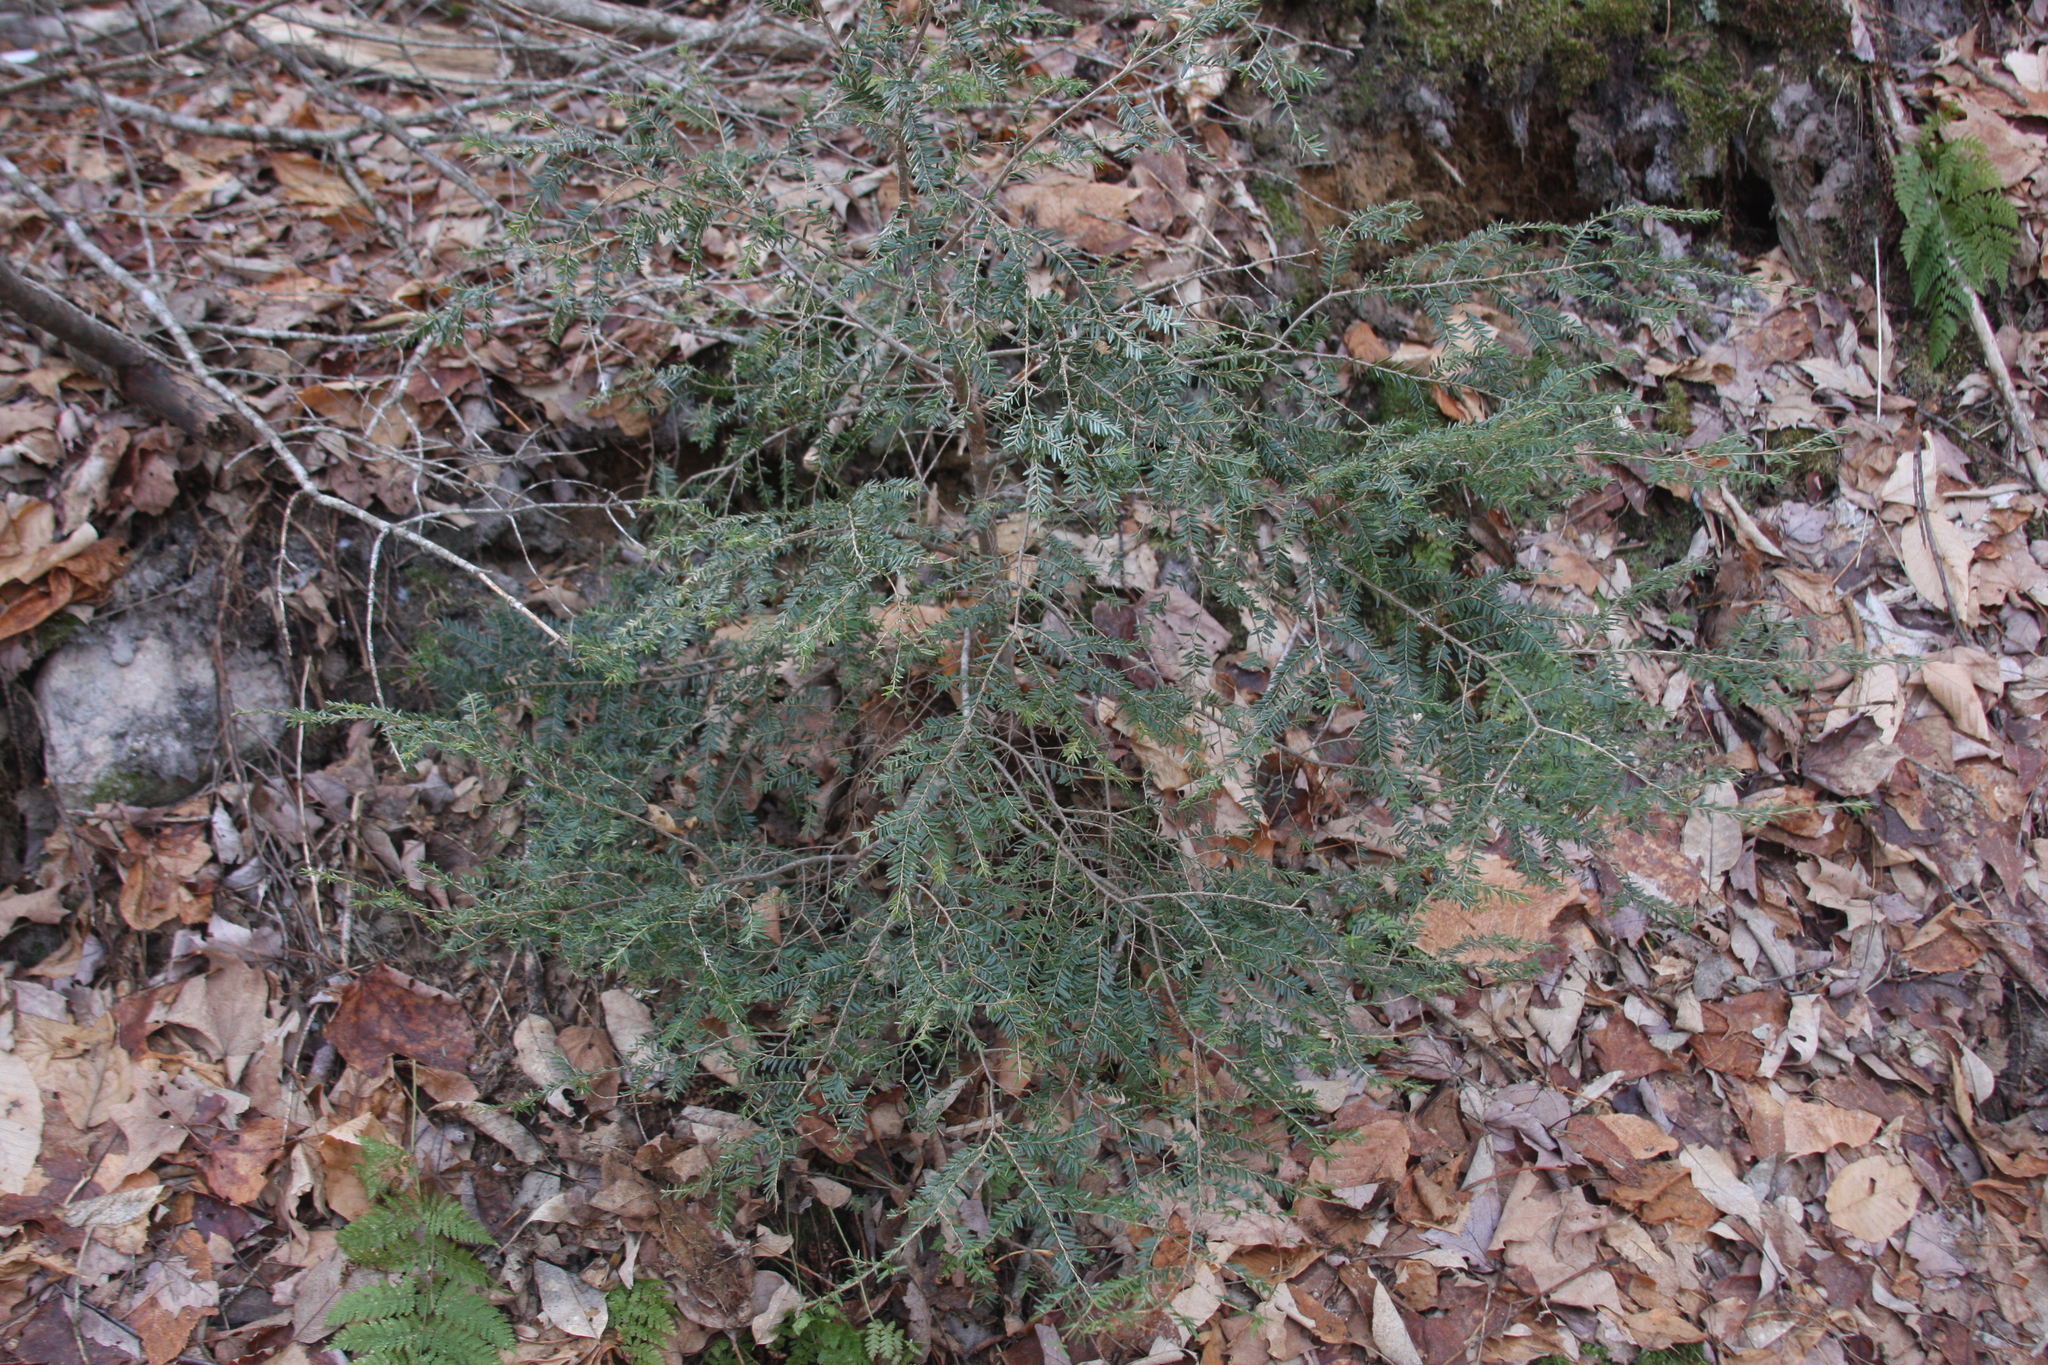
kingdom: Plantae
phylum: Tracheophyta
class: Pinopsida
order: Pinales
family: Pinaceae
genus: Tsuga
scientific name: Tsuga canadensis
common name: Eastern hemlock
